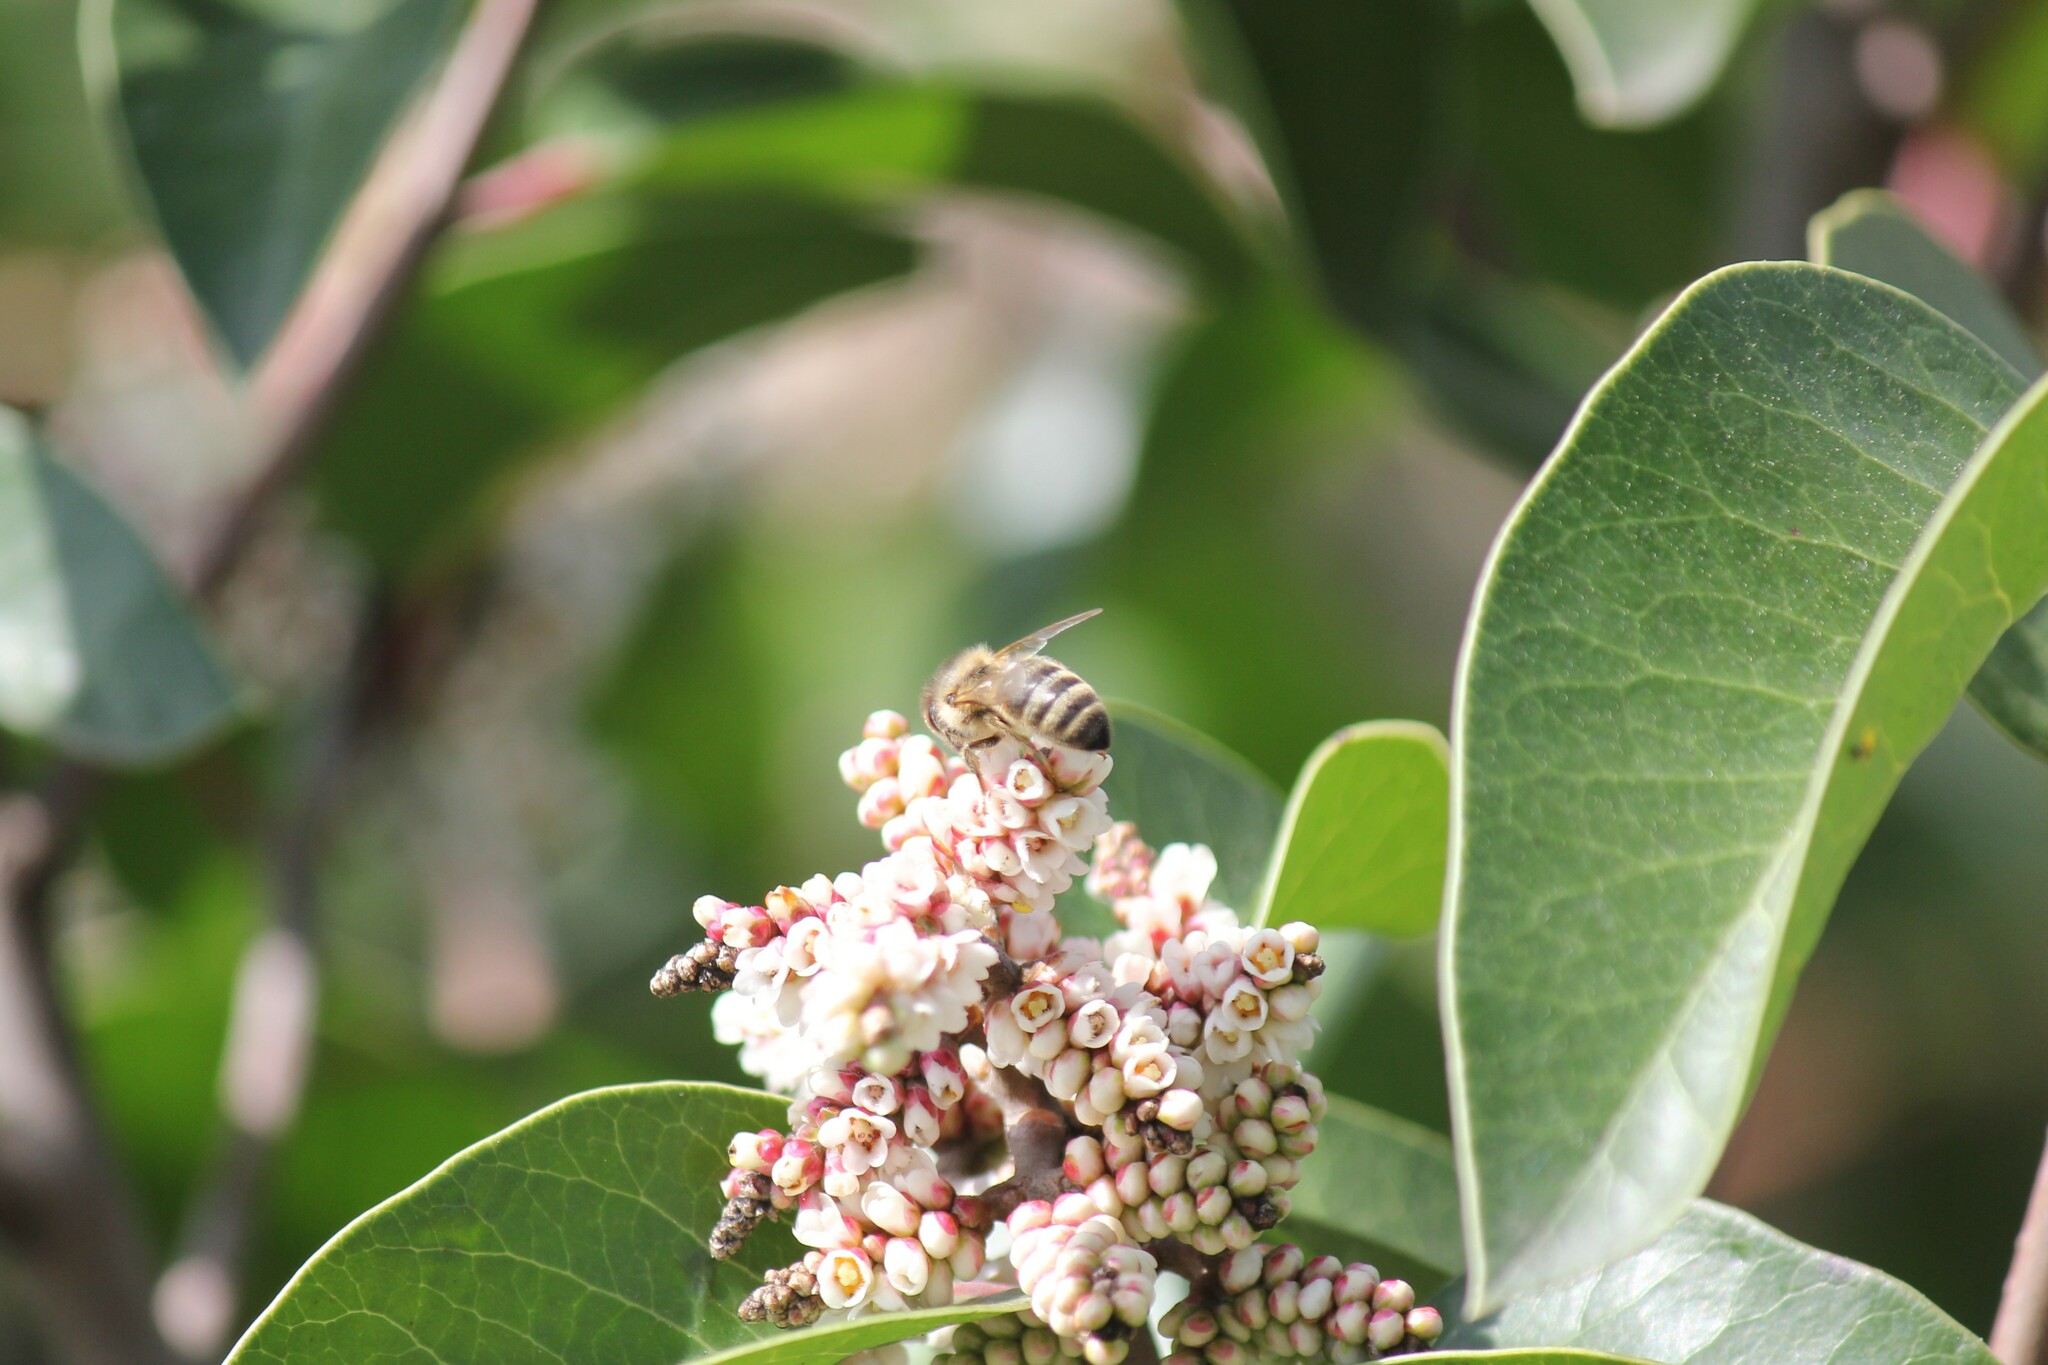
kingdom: Animalia
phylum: Arthropoda
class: Insecta
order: Hymenoptera
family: Apidae
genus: Apis
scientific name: Apis mellifera
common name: Honey bee
